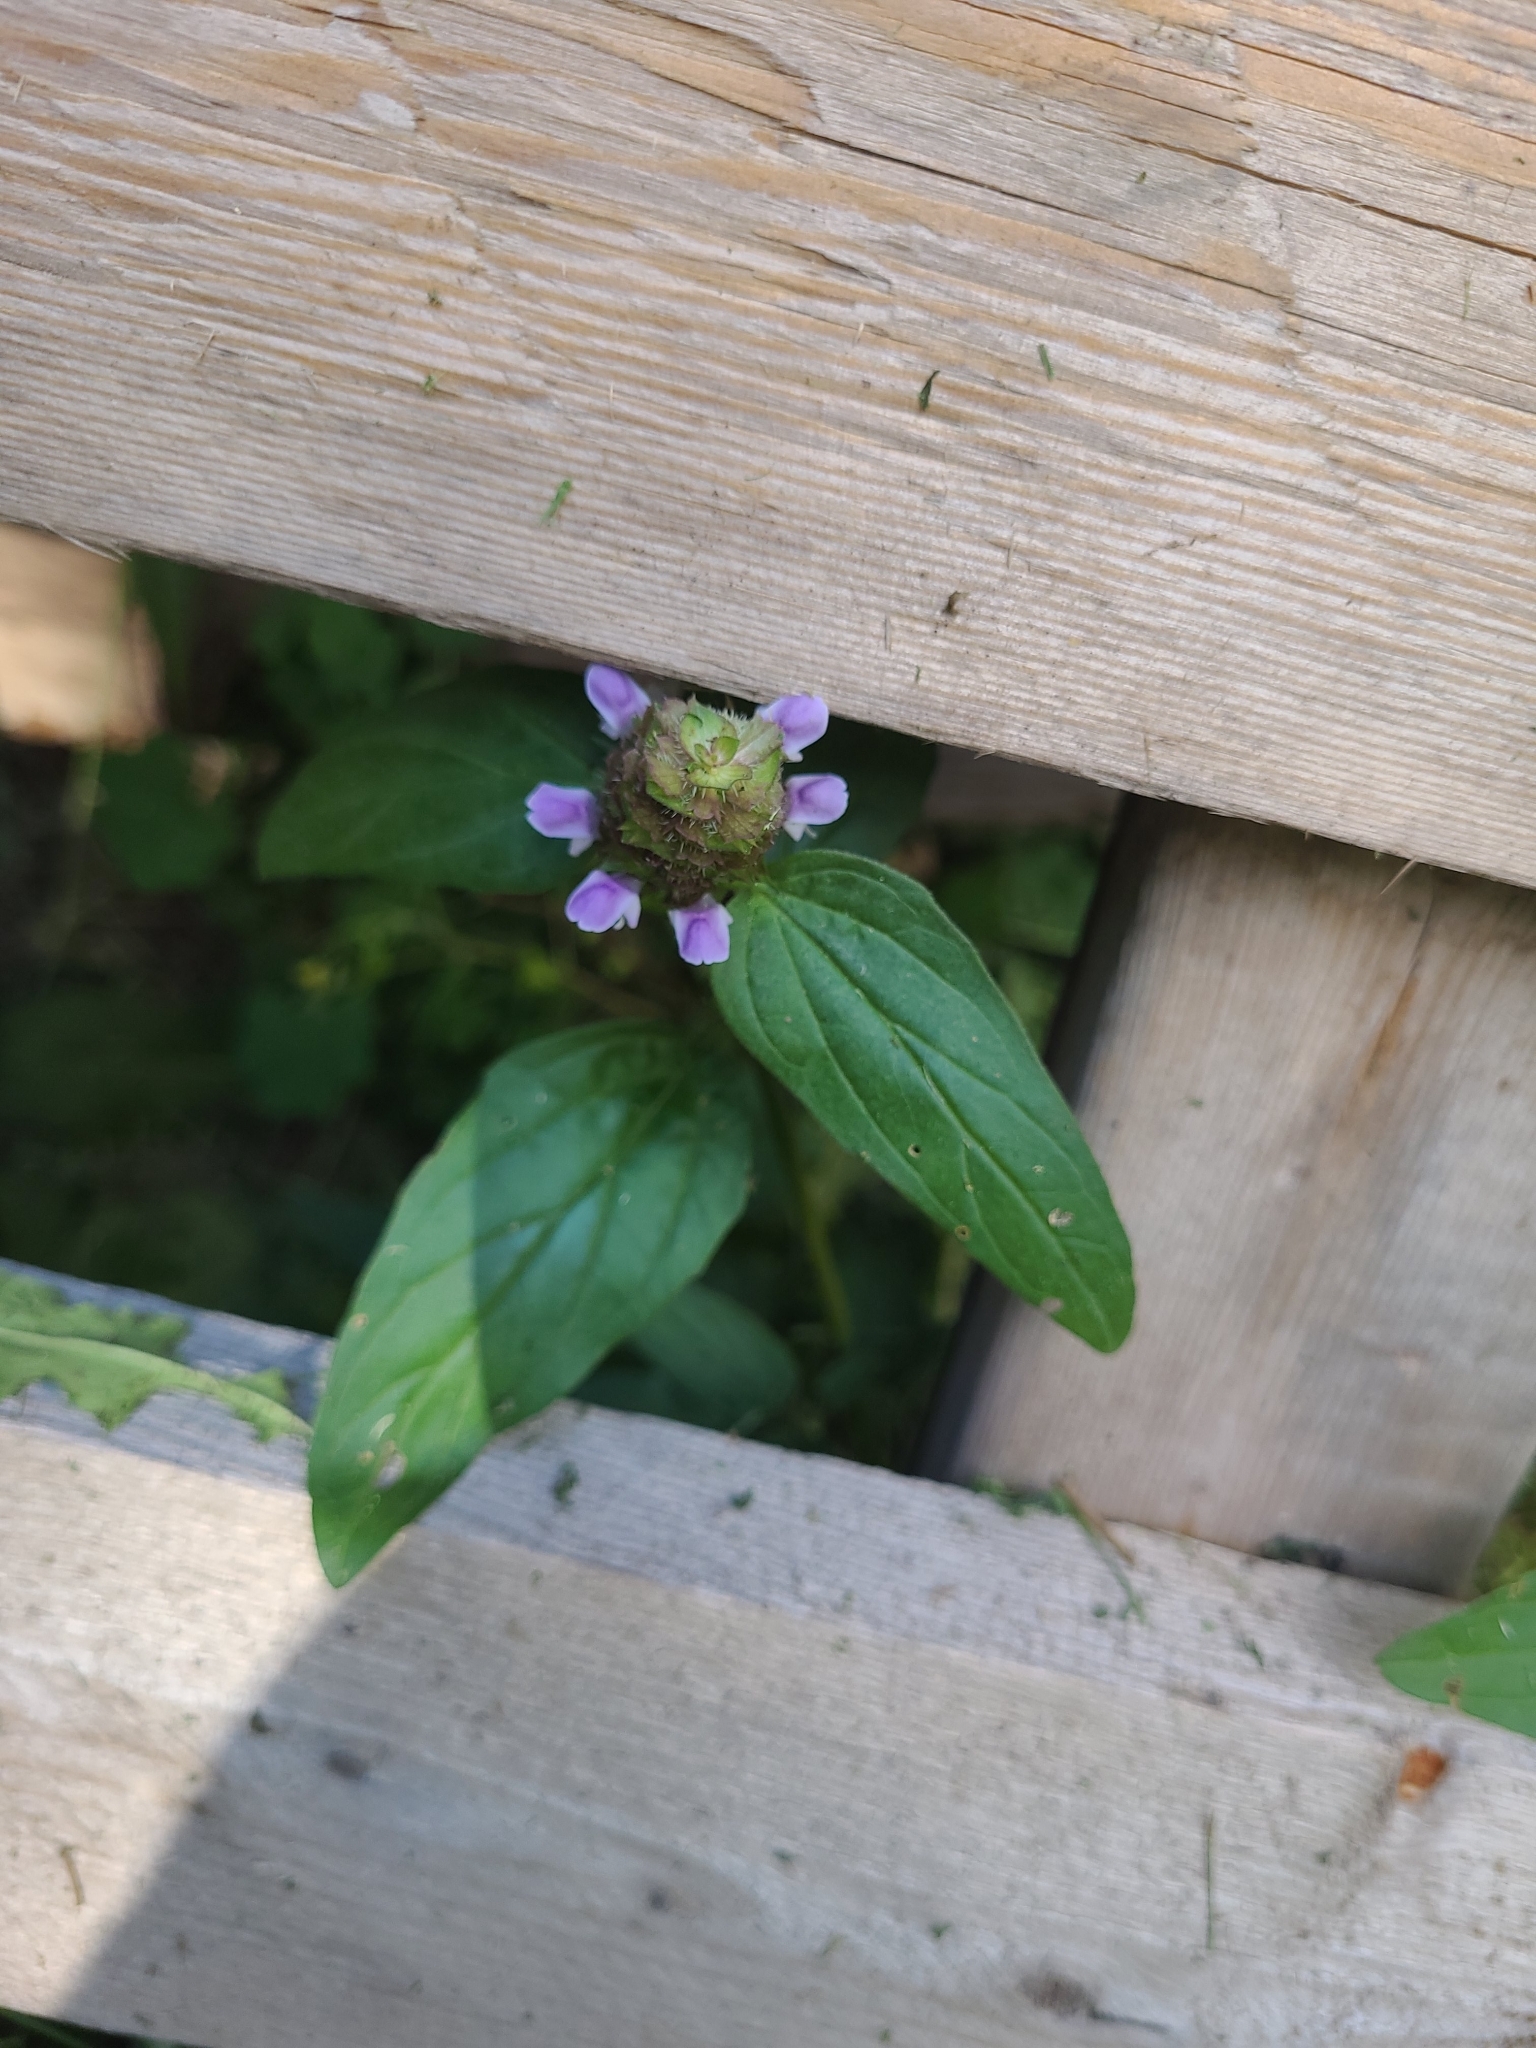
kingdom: Plantae
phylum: Tracheophyta
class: Magnoliopsida
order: Lamiales
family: Lamiaceae
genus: Prunella
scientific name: Prunella vulgaris
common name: Heal-all
